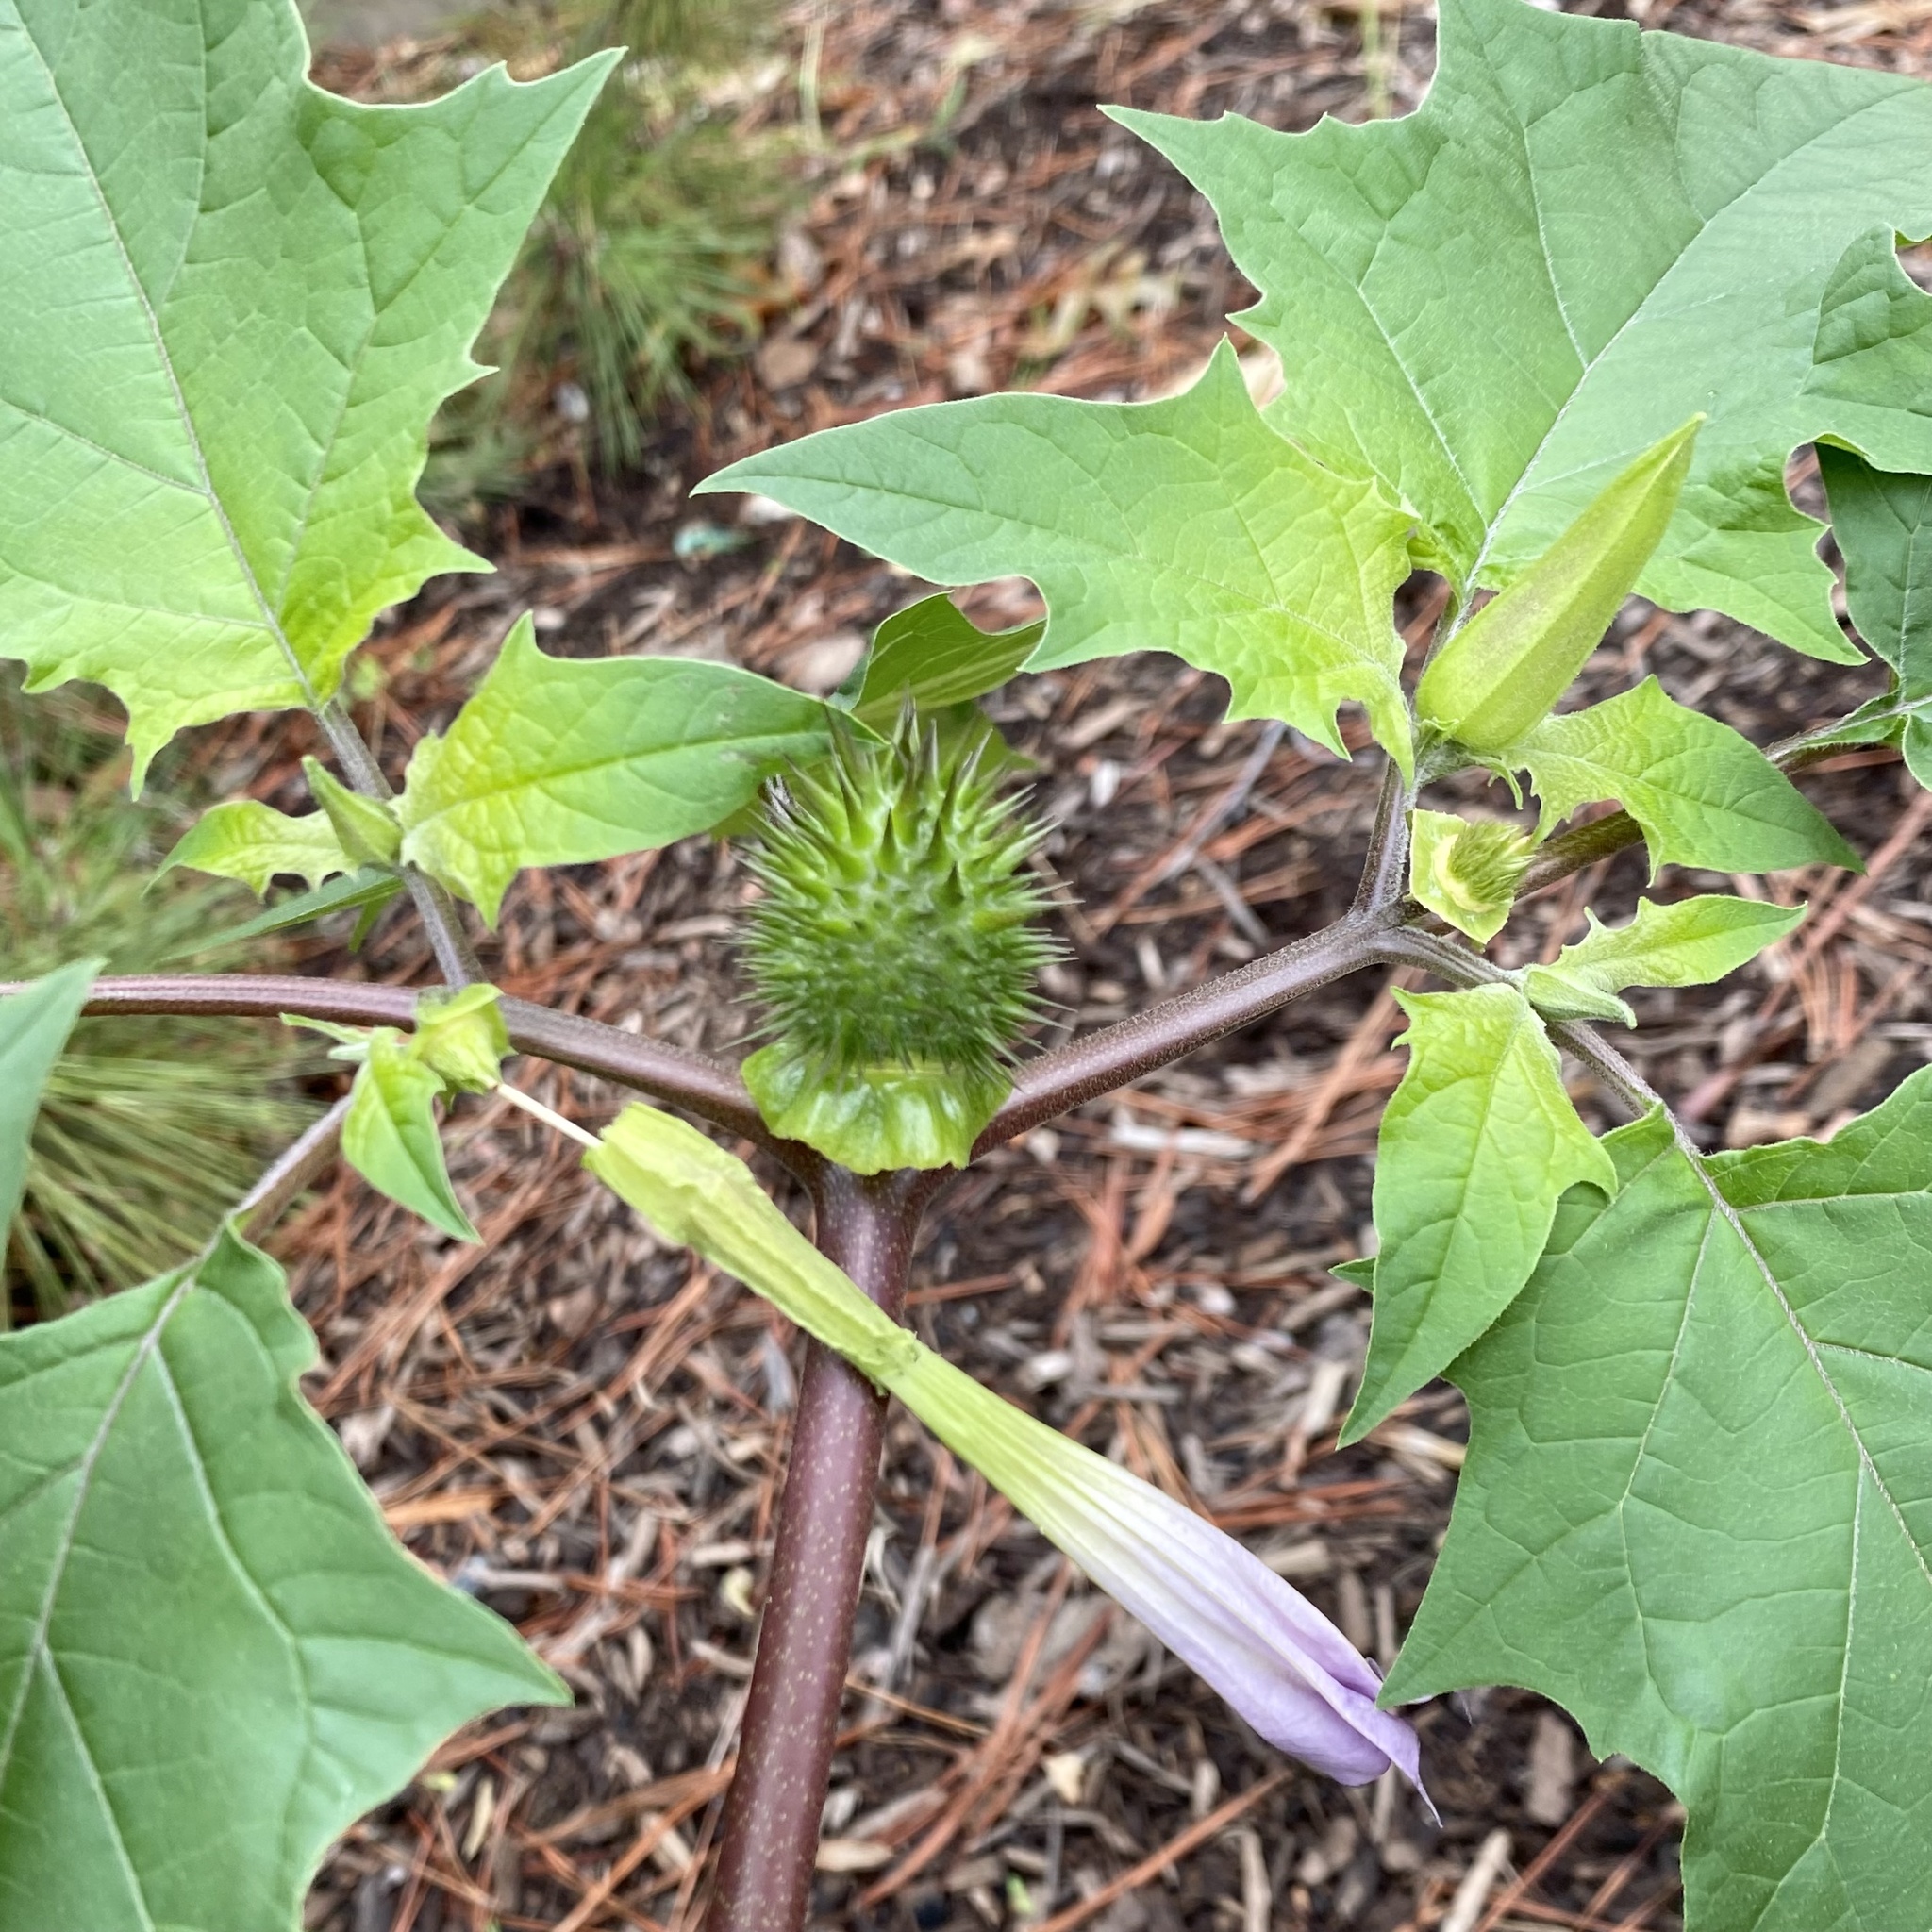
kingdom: Plantae
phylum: Tracheophyta
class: Magnoliopsida
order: Solanales
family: Solanaceae
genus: Datura
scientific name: Datura stramonium
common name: Thorn-apple
